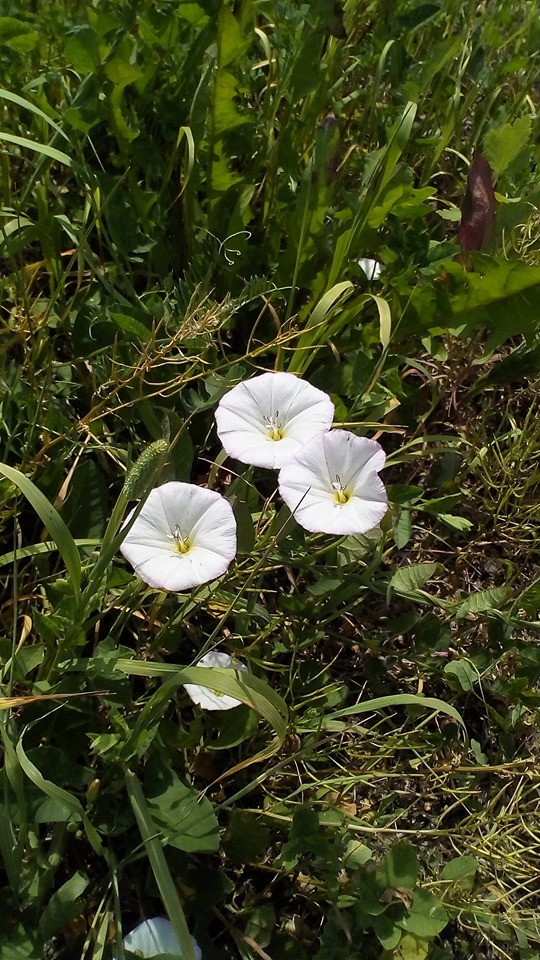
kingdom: Plantae
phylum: Tracheophyta
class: Magnoliopsida
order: Solanales
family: Convolvulaceae
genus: Convolvulus
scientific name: Convolvulus arvensis
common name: Field bindweed
